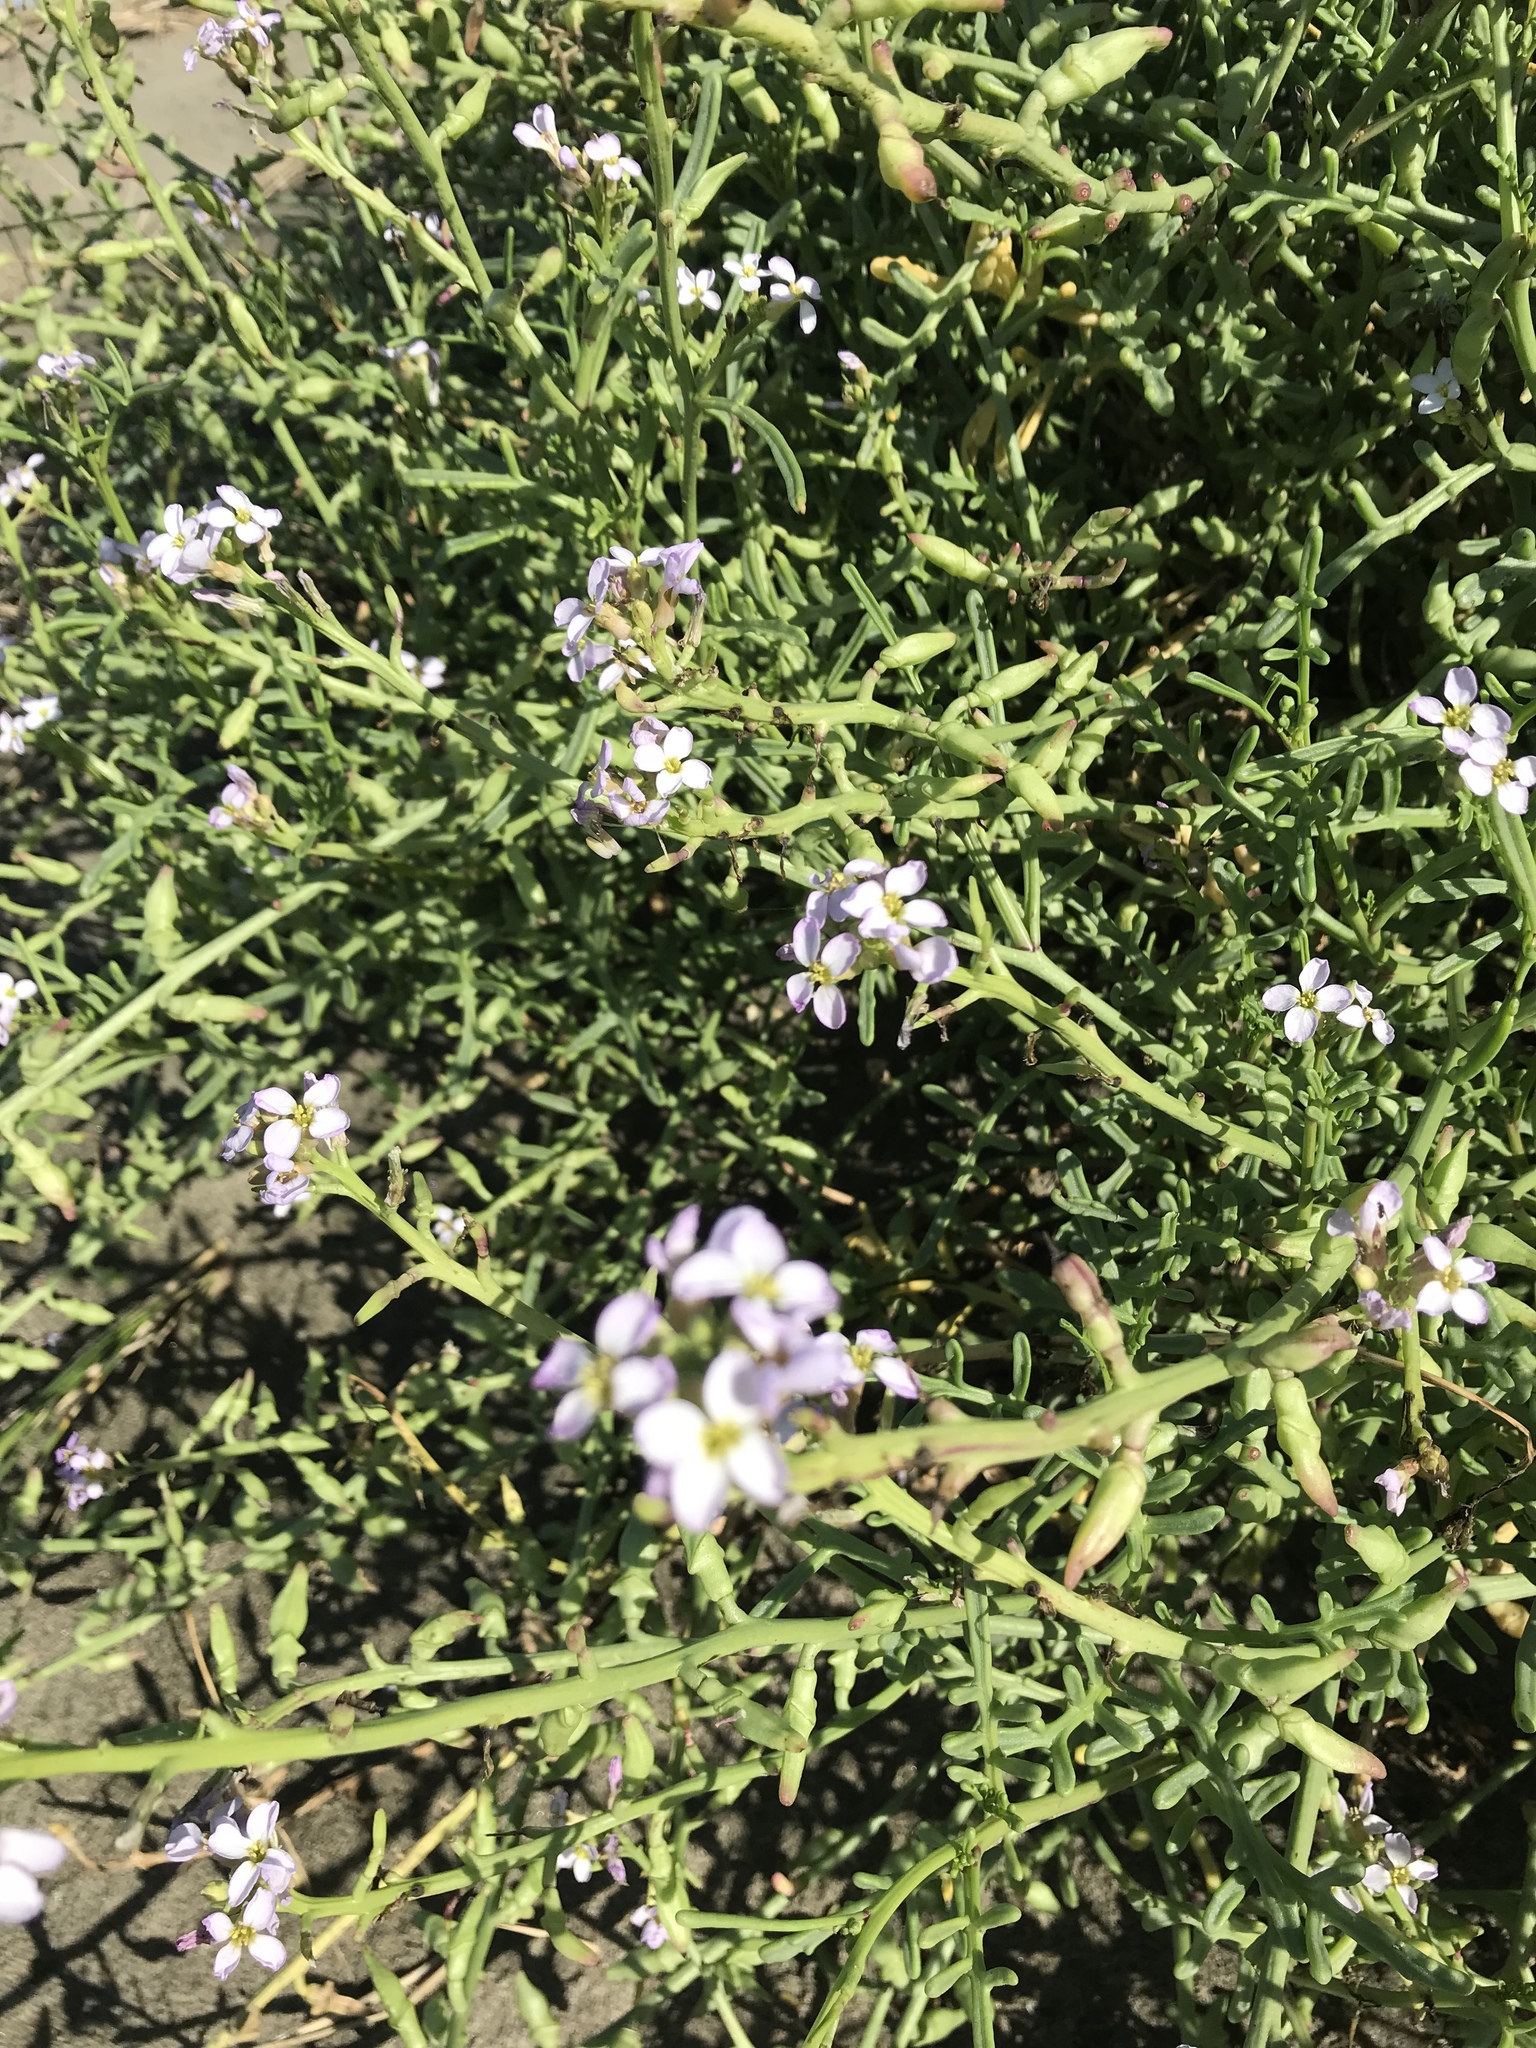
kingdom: Plantae
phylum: Tracheophyta
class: Magnoliopsida
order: Brassicales
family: Brassicaceae
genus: Cakile
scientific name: Cakile maritima
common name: Sea rocket
